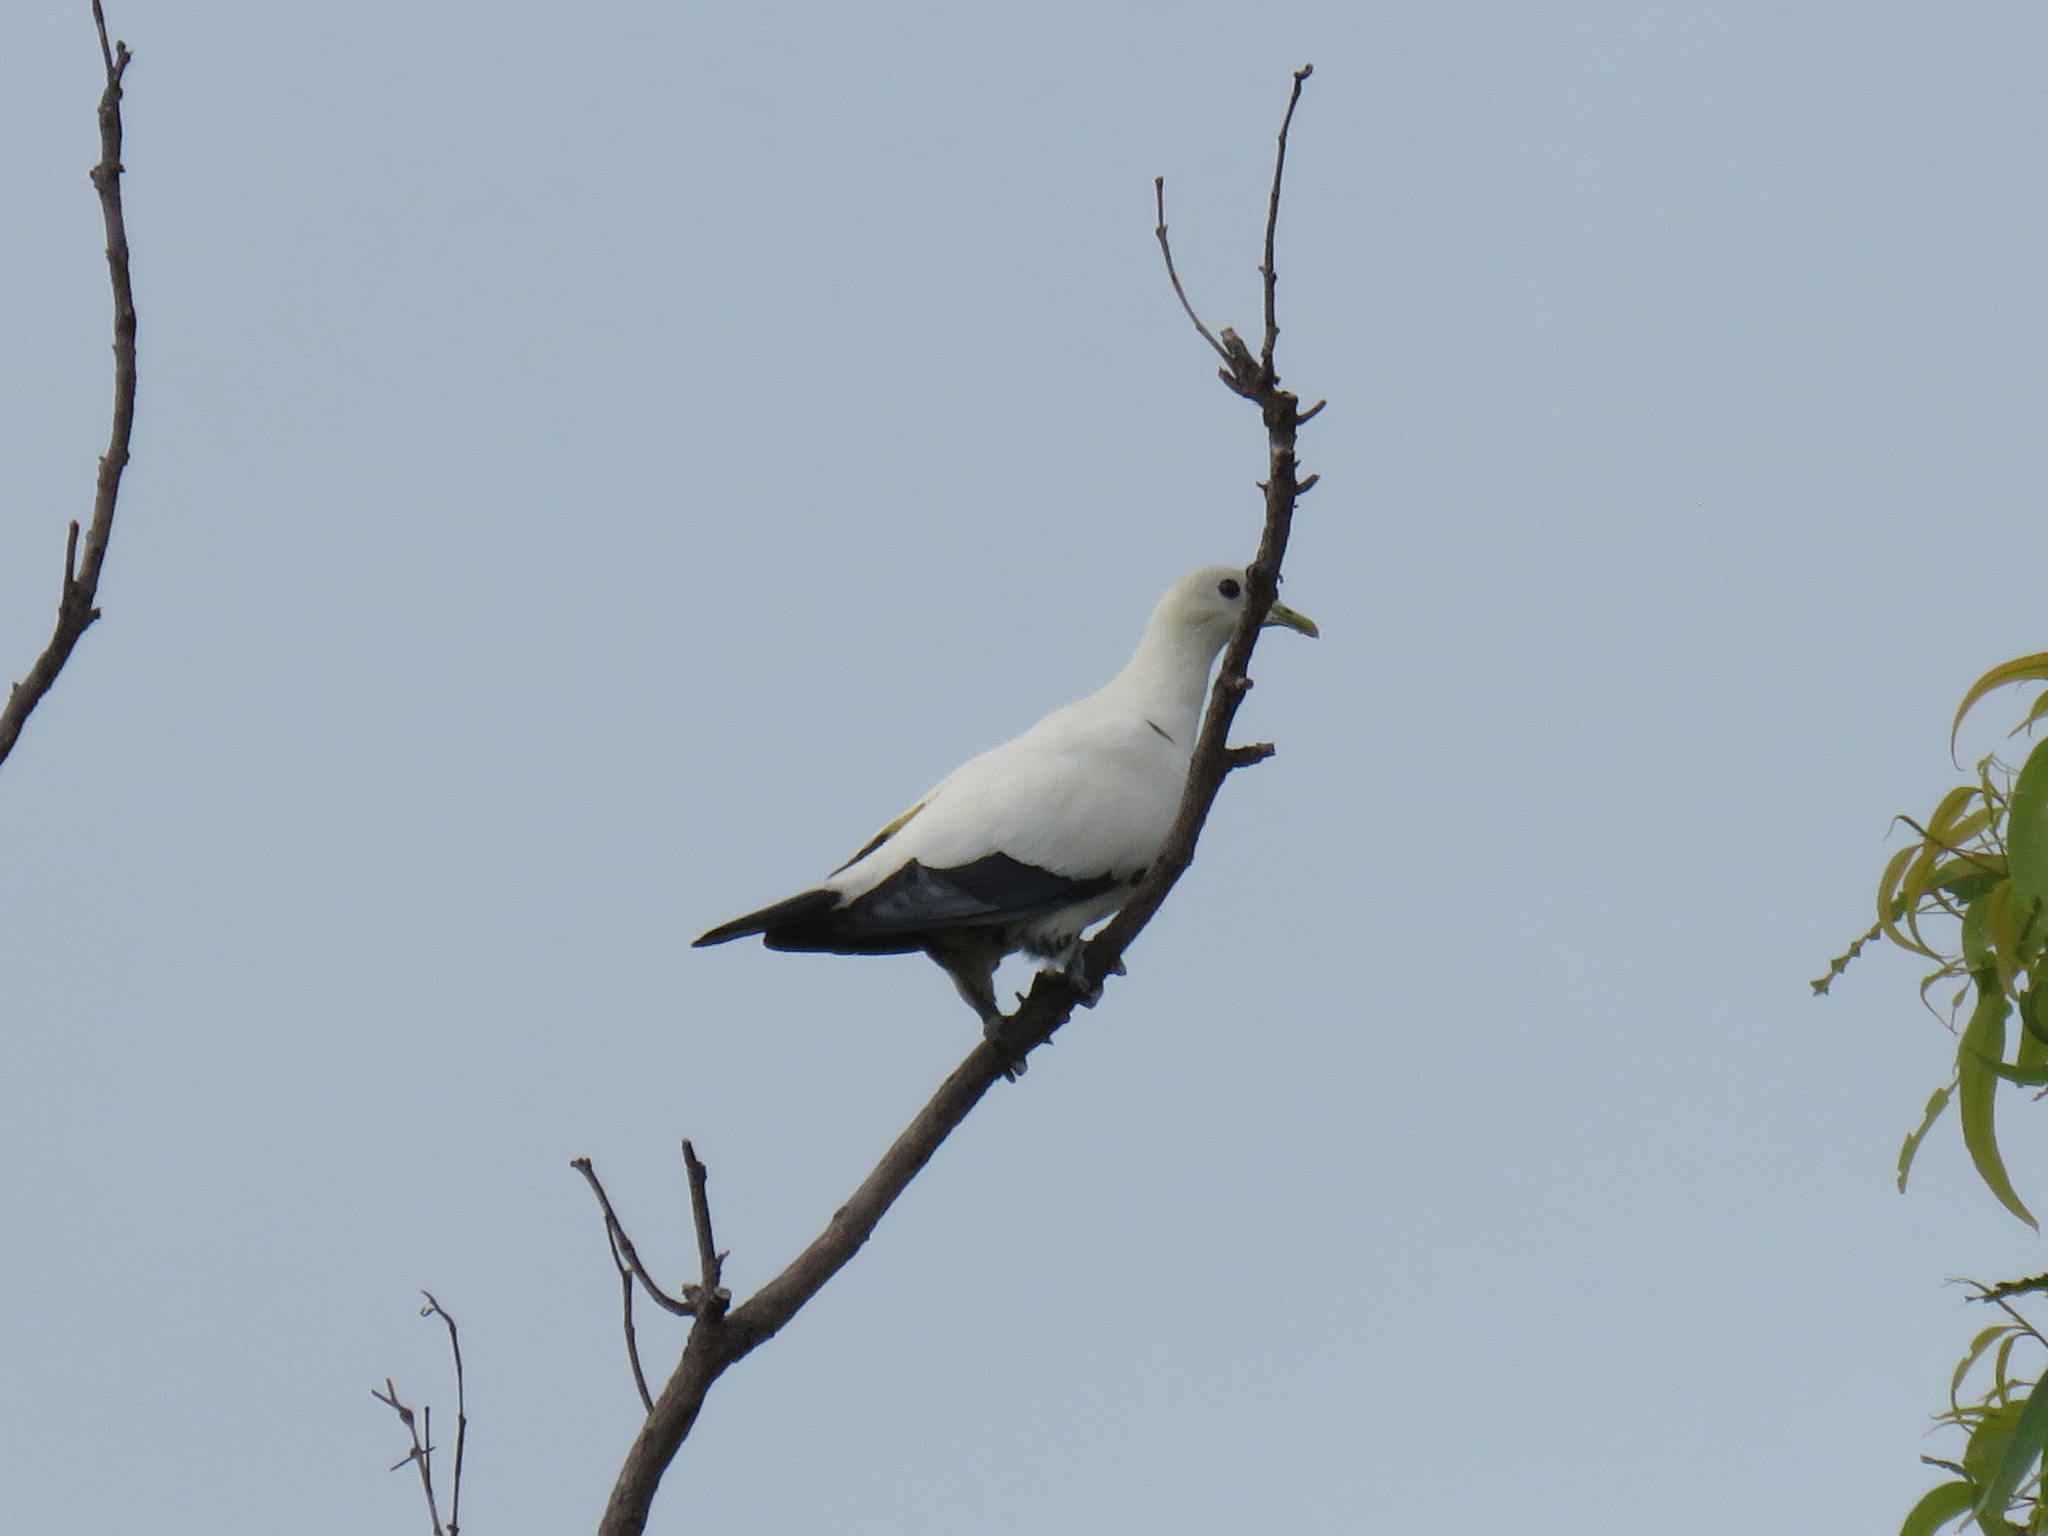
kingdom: Animalia
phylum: Chordata
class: Aves
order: Columbiformes
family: Columbidae
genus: Ducula
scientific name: Ducula spilorrhoa
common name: Torresian imperial pigeon
